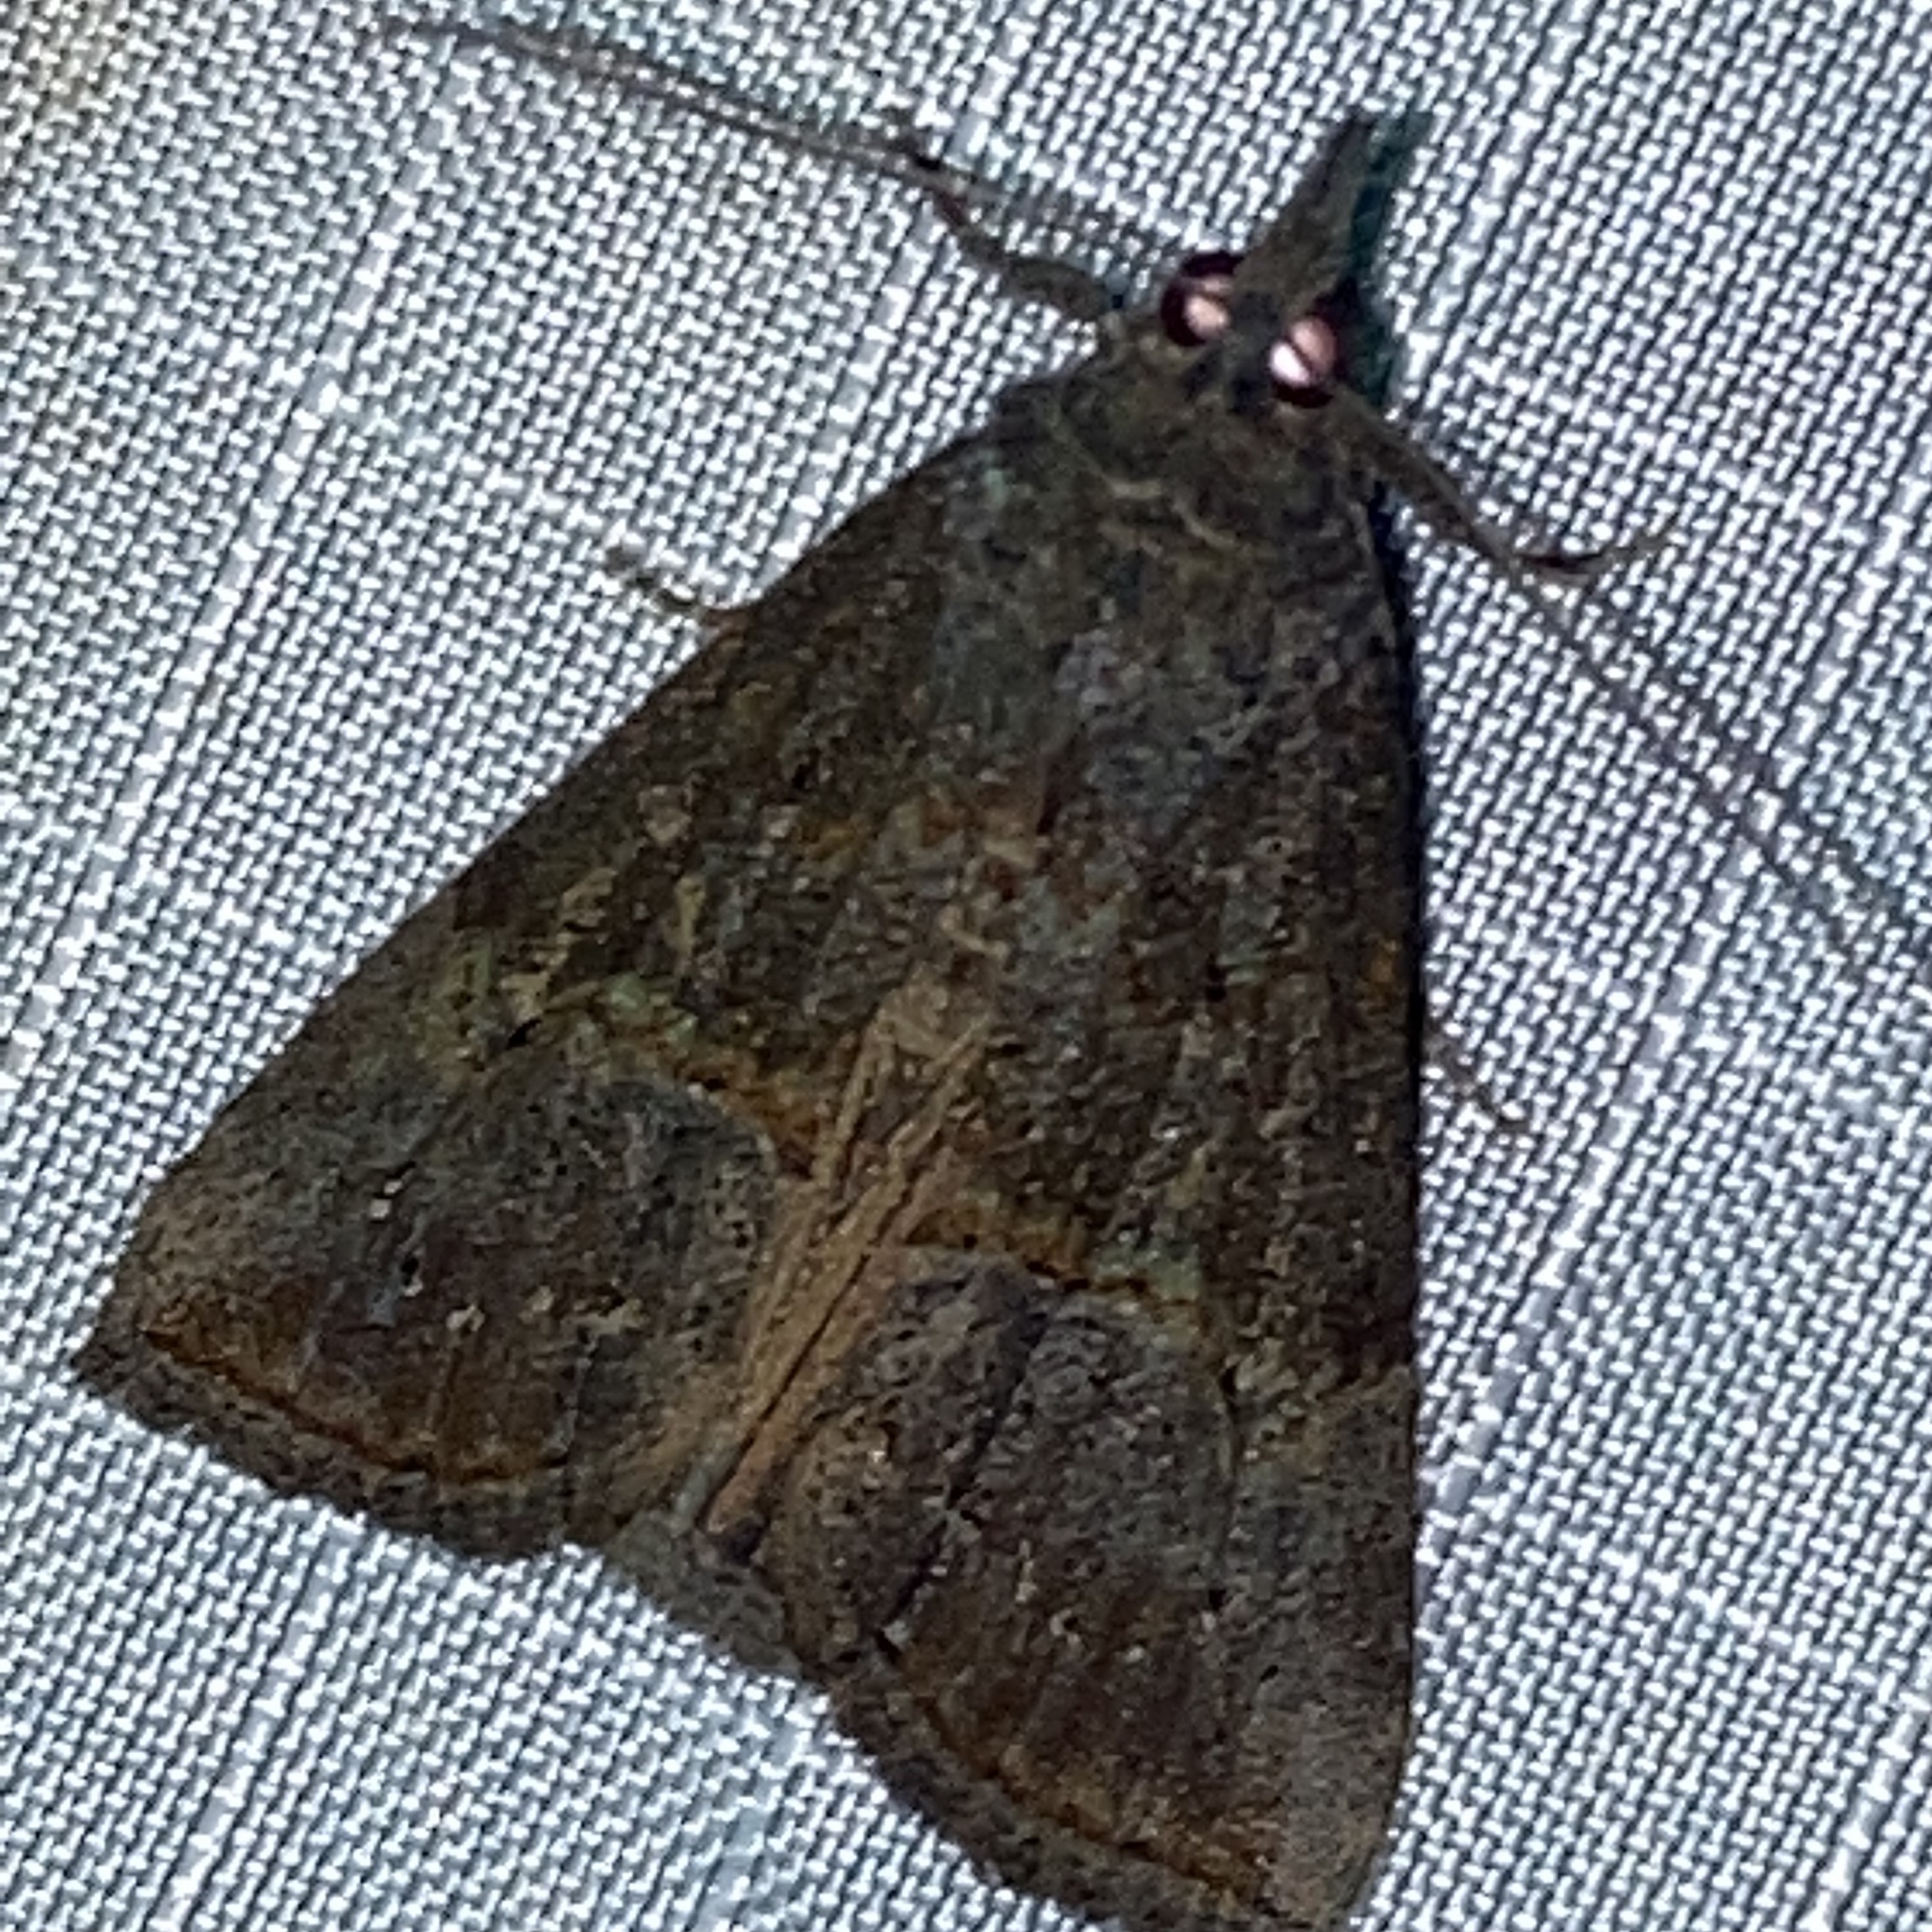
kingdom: Animalia
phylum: Arthropoda
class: Insecta
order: Lepidoptera
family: Erebidae
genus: Hypena
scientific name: Hypena scabra
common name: Green cloverworm
